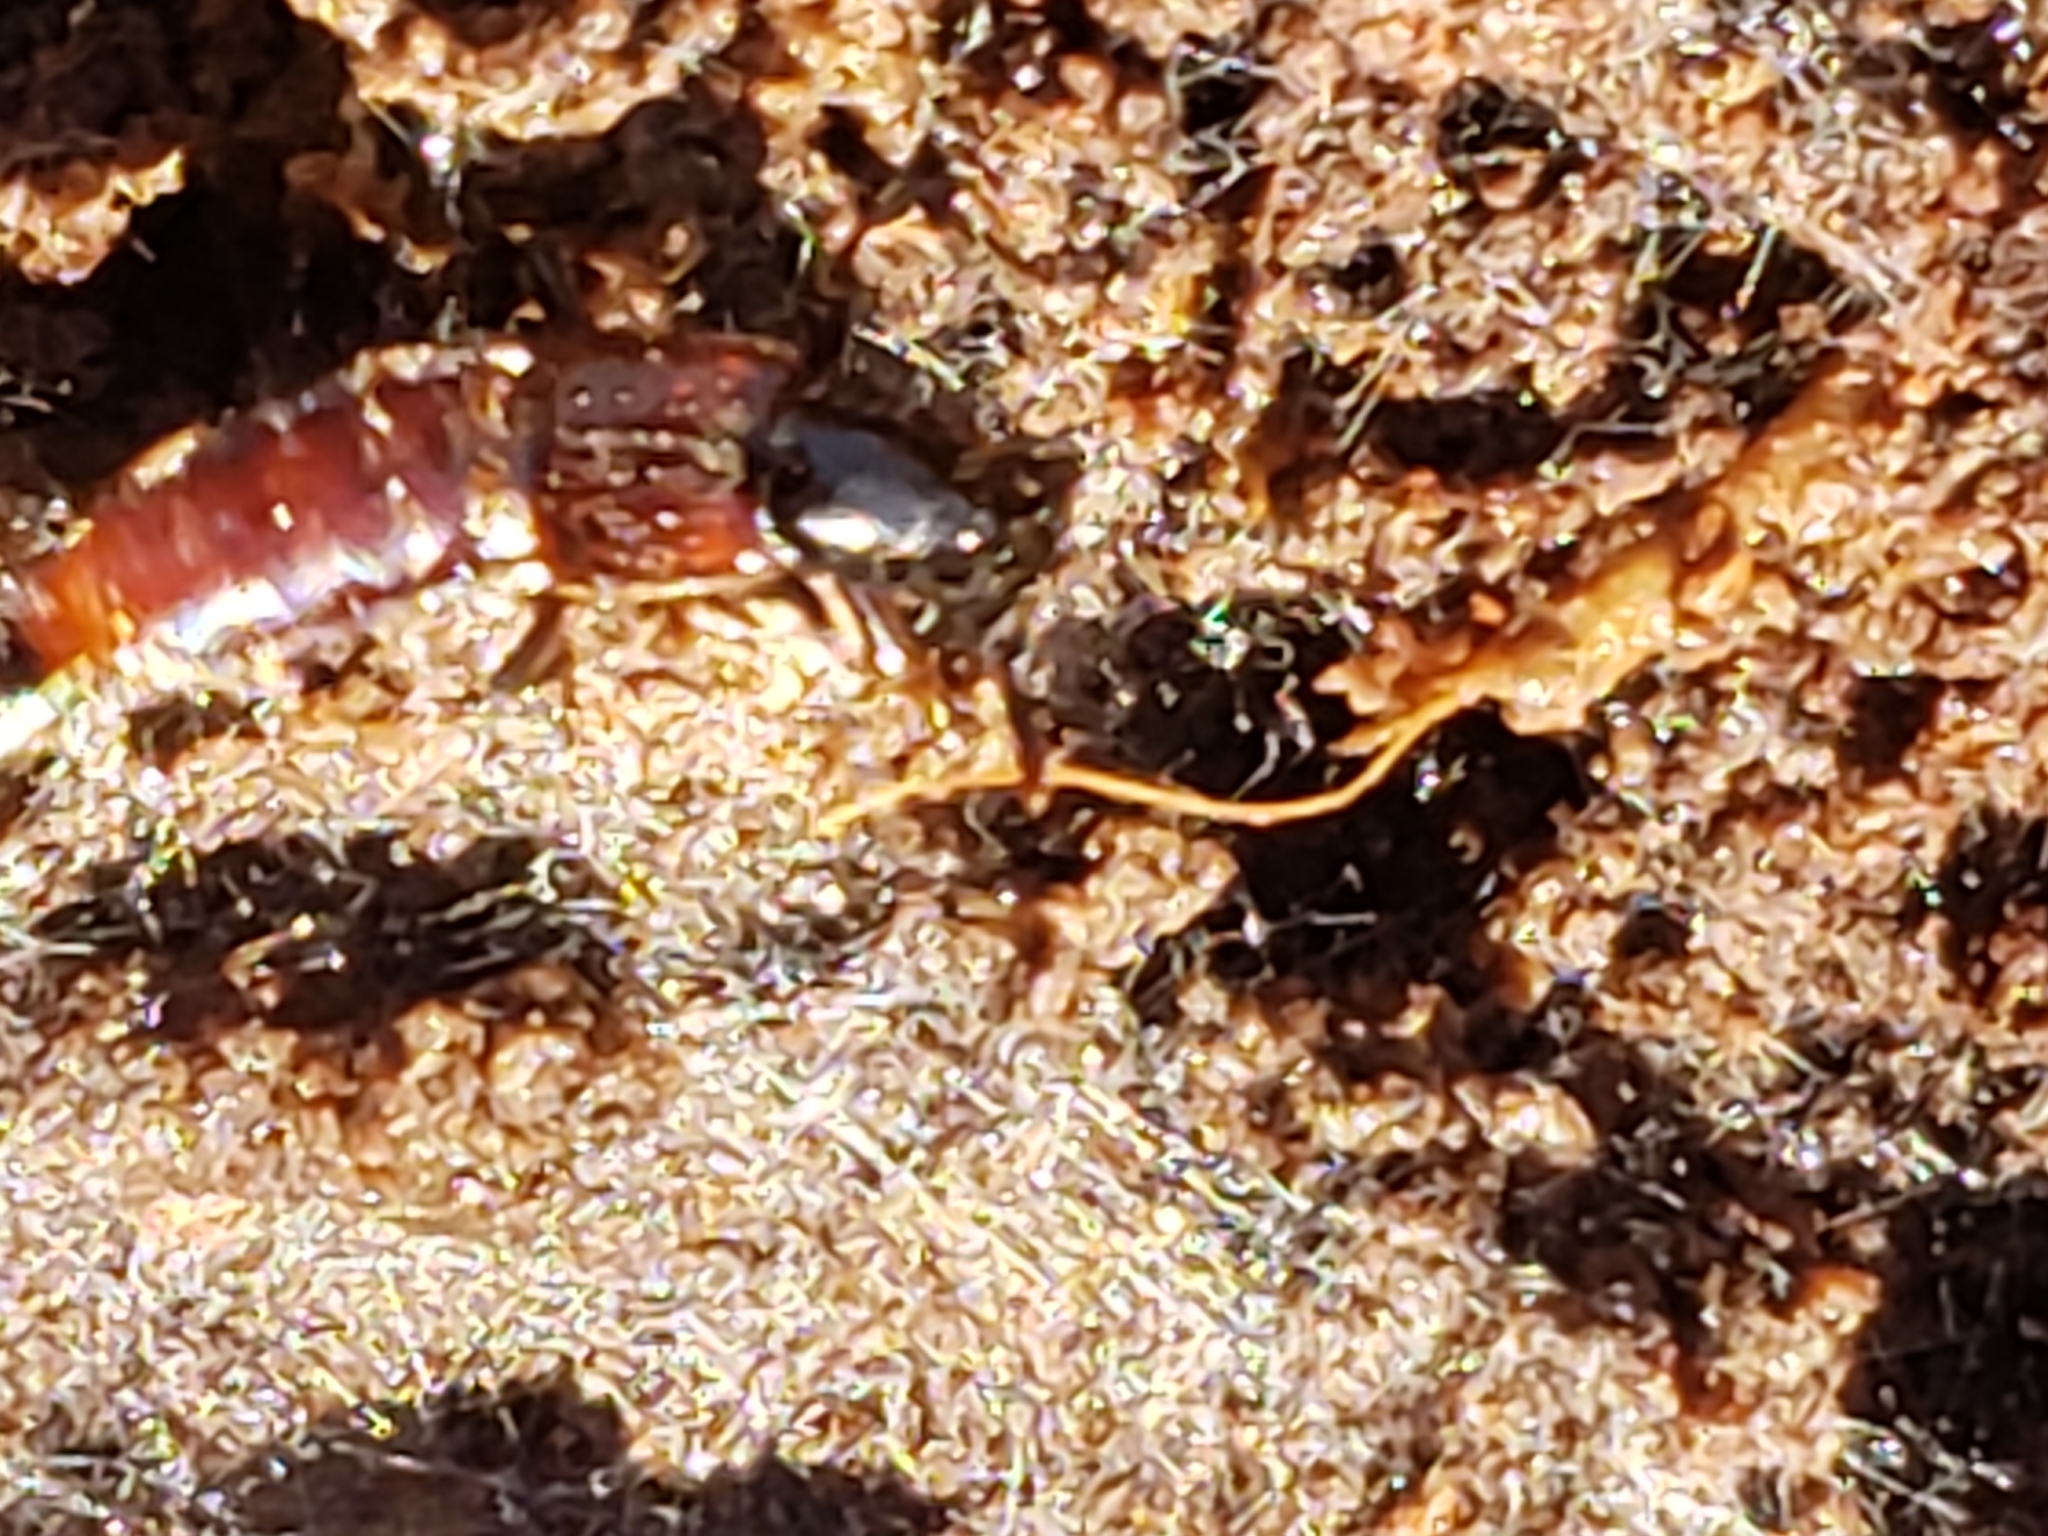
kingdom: Animalia
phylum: Arthropoda
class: Insecta
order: Coleoptera
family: Staphylinidae
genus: Hesperus
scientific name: Hesperus baltimorensis
